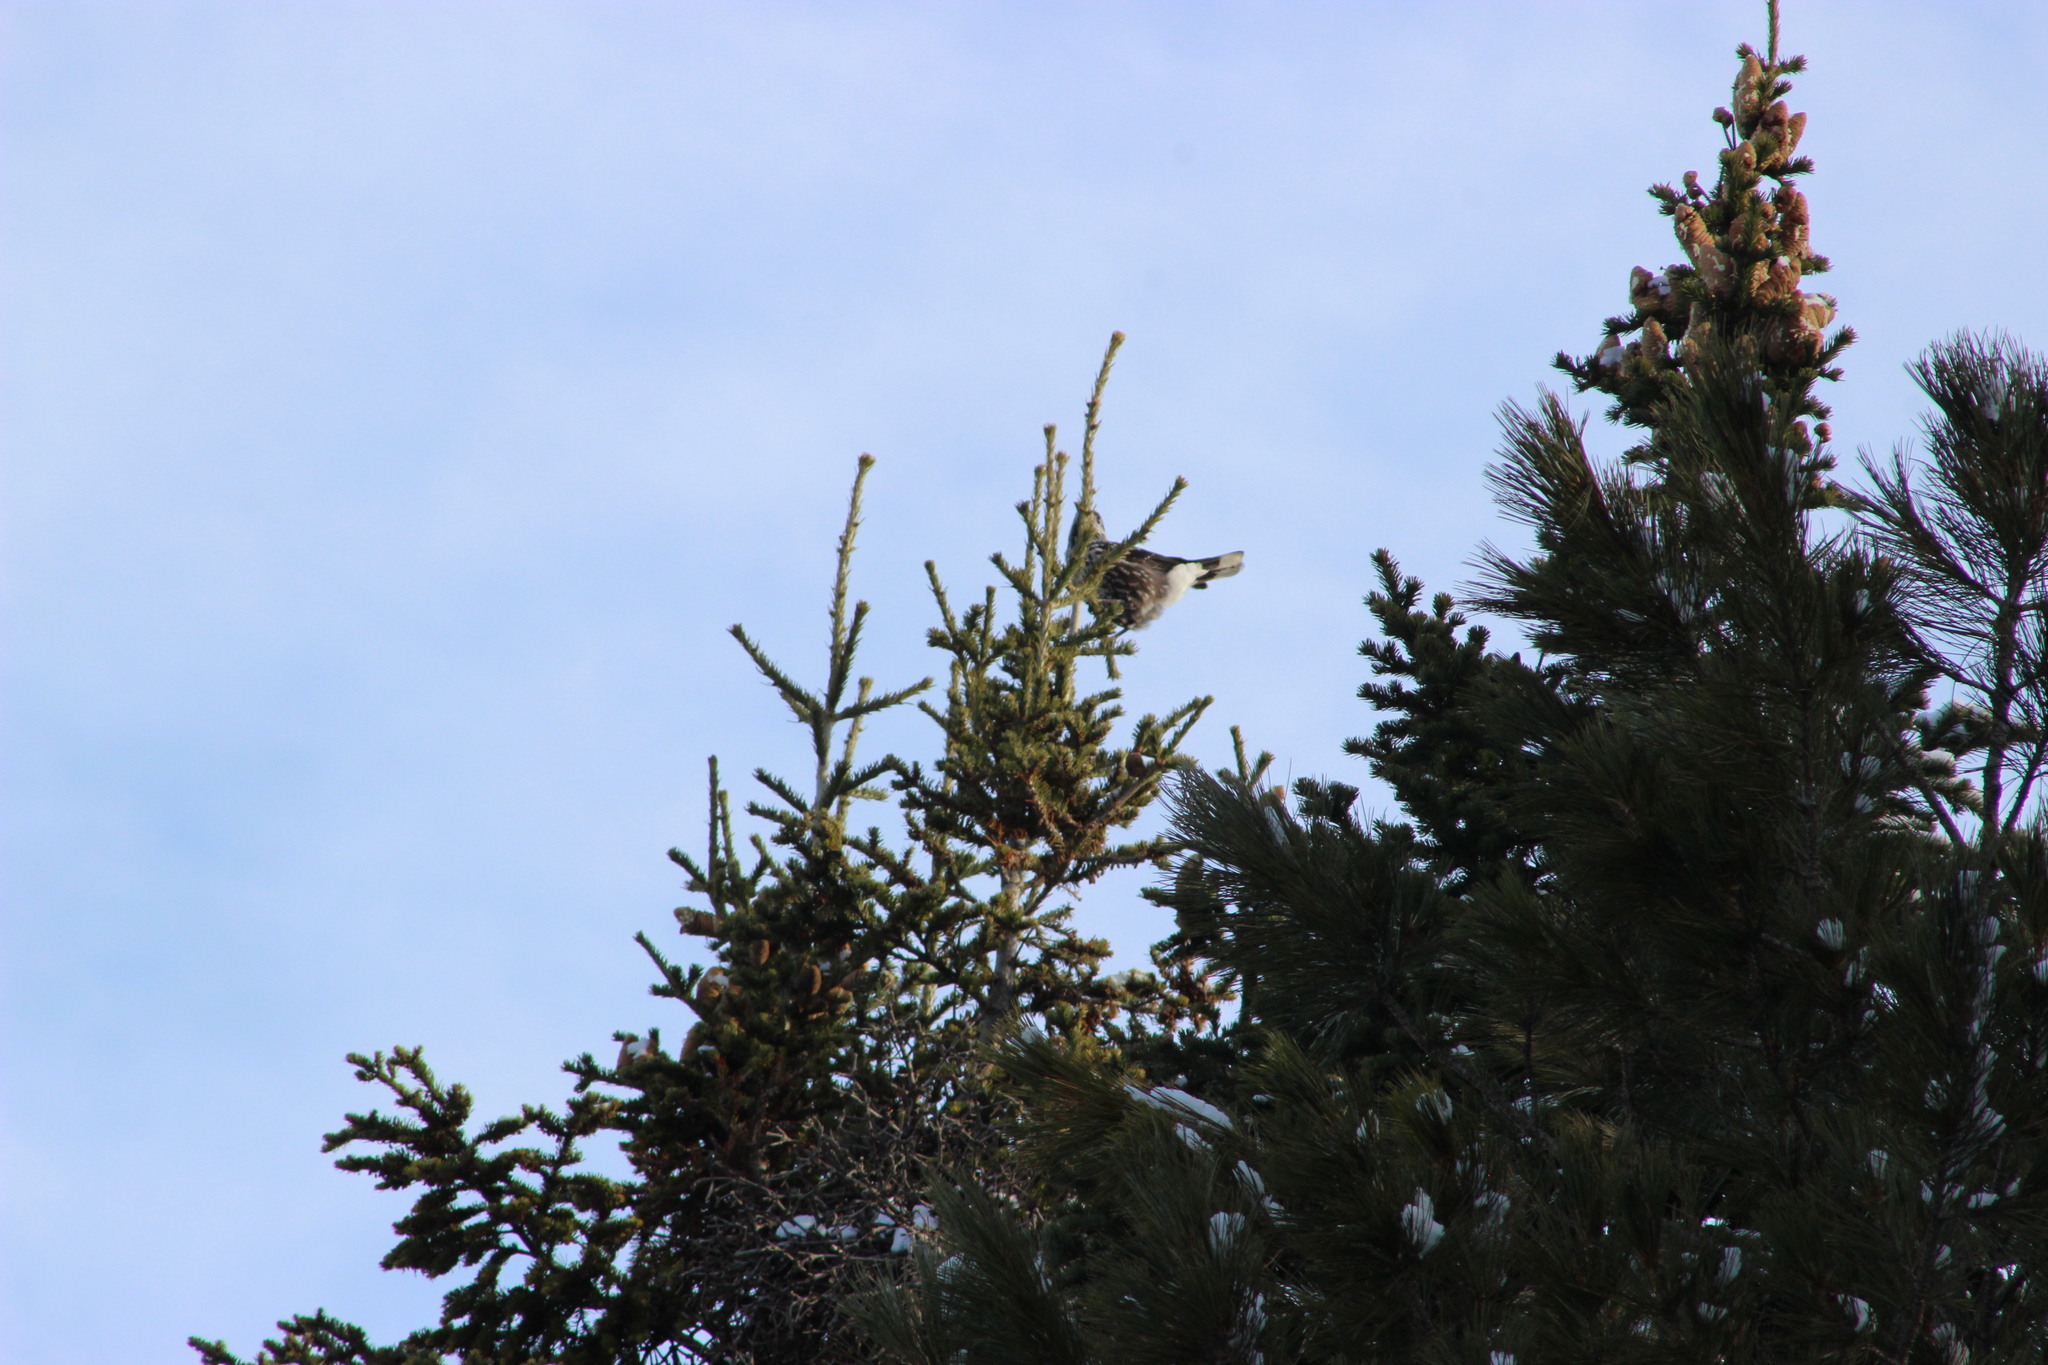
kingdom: Animalia
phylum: Chordata
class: Aves
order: Passeriformes
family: Corvidae
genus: Nucifraga
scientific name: Nucifraga caryocatactes
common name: Spotted nutcracker
